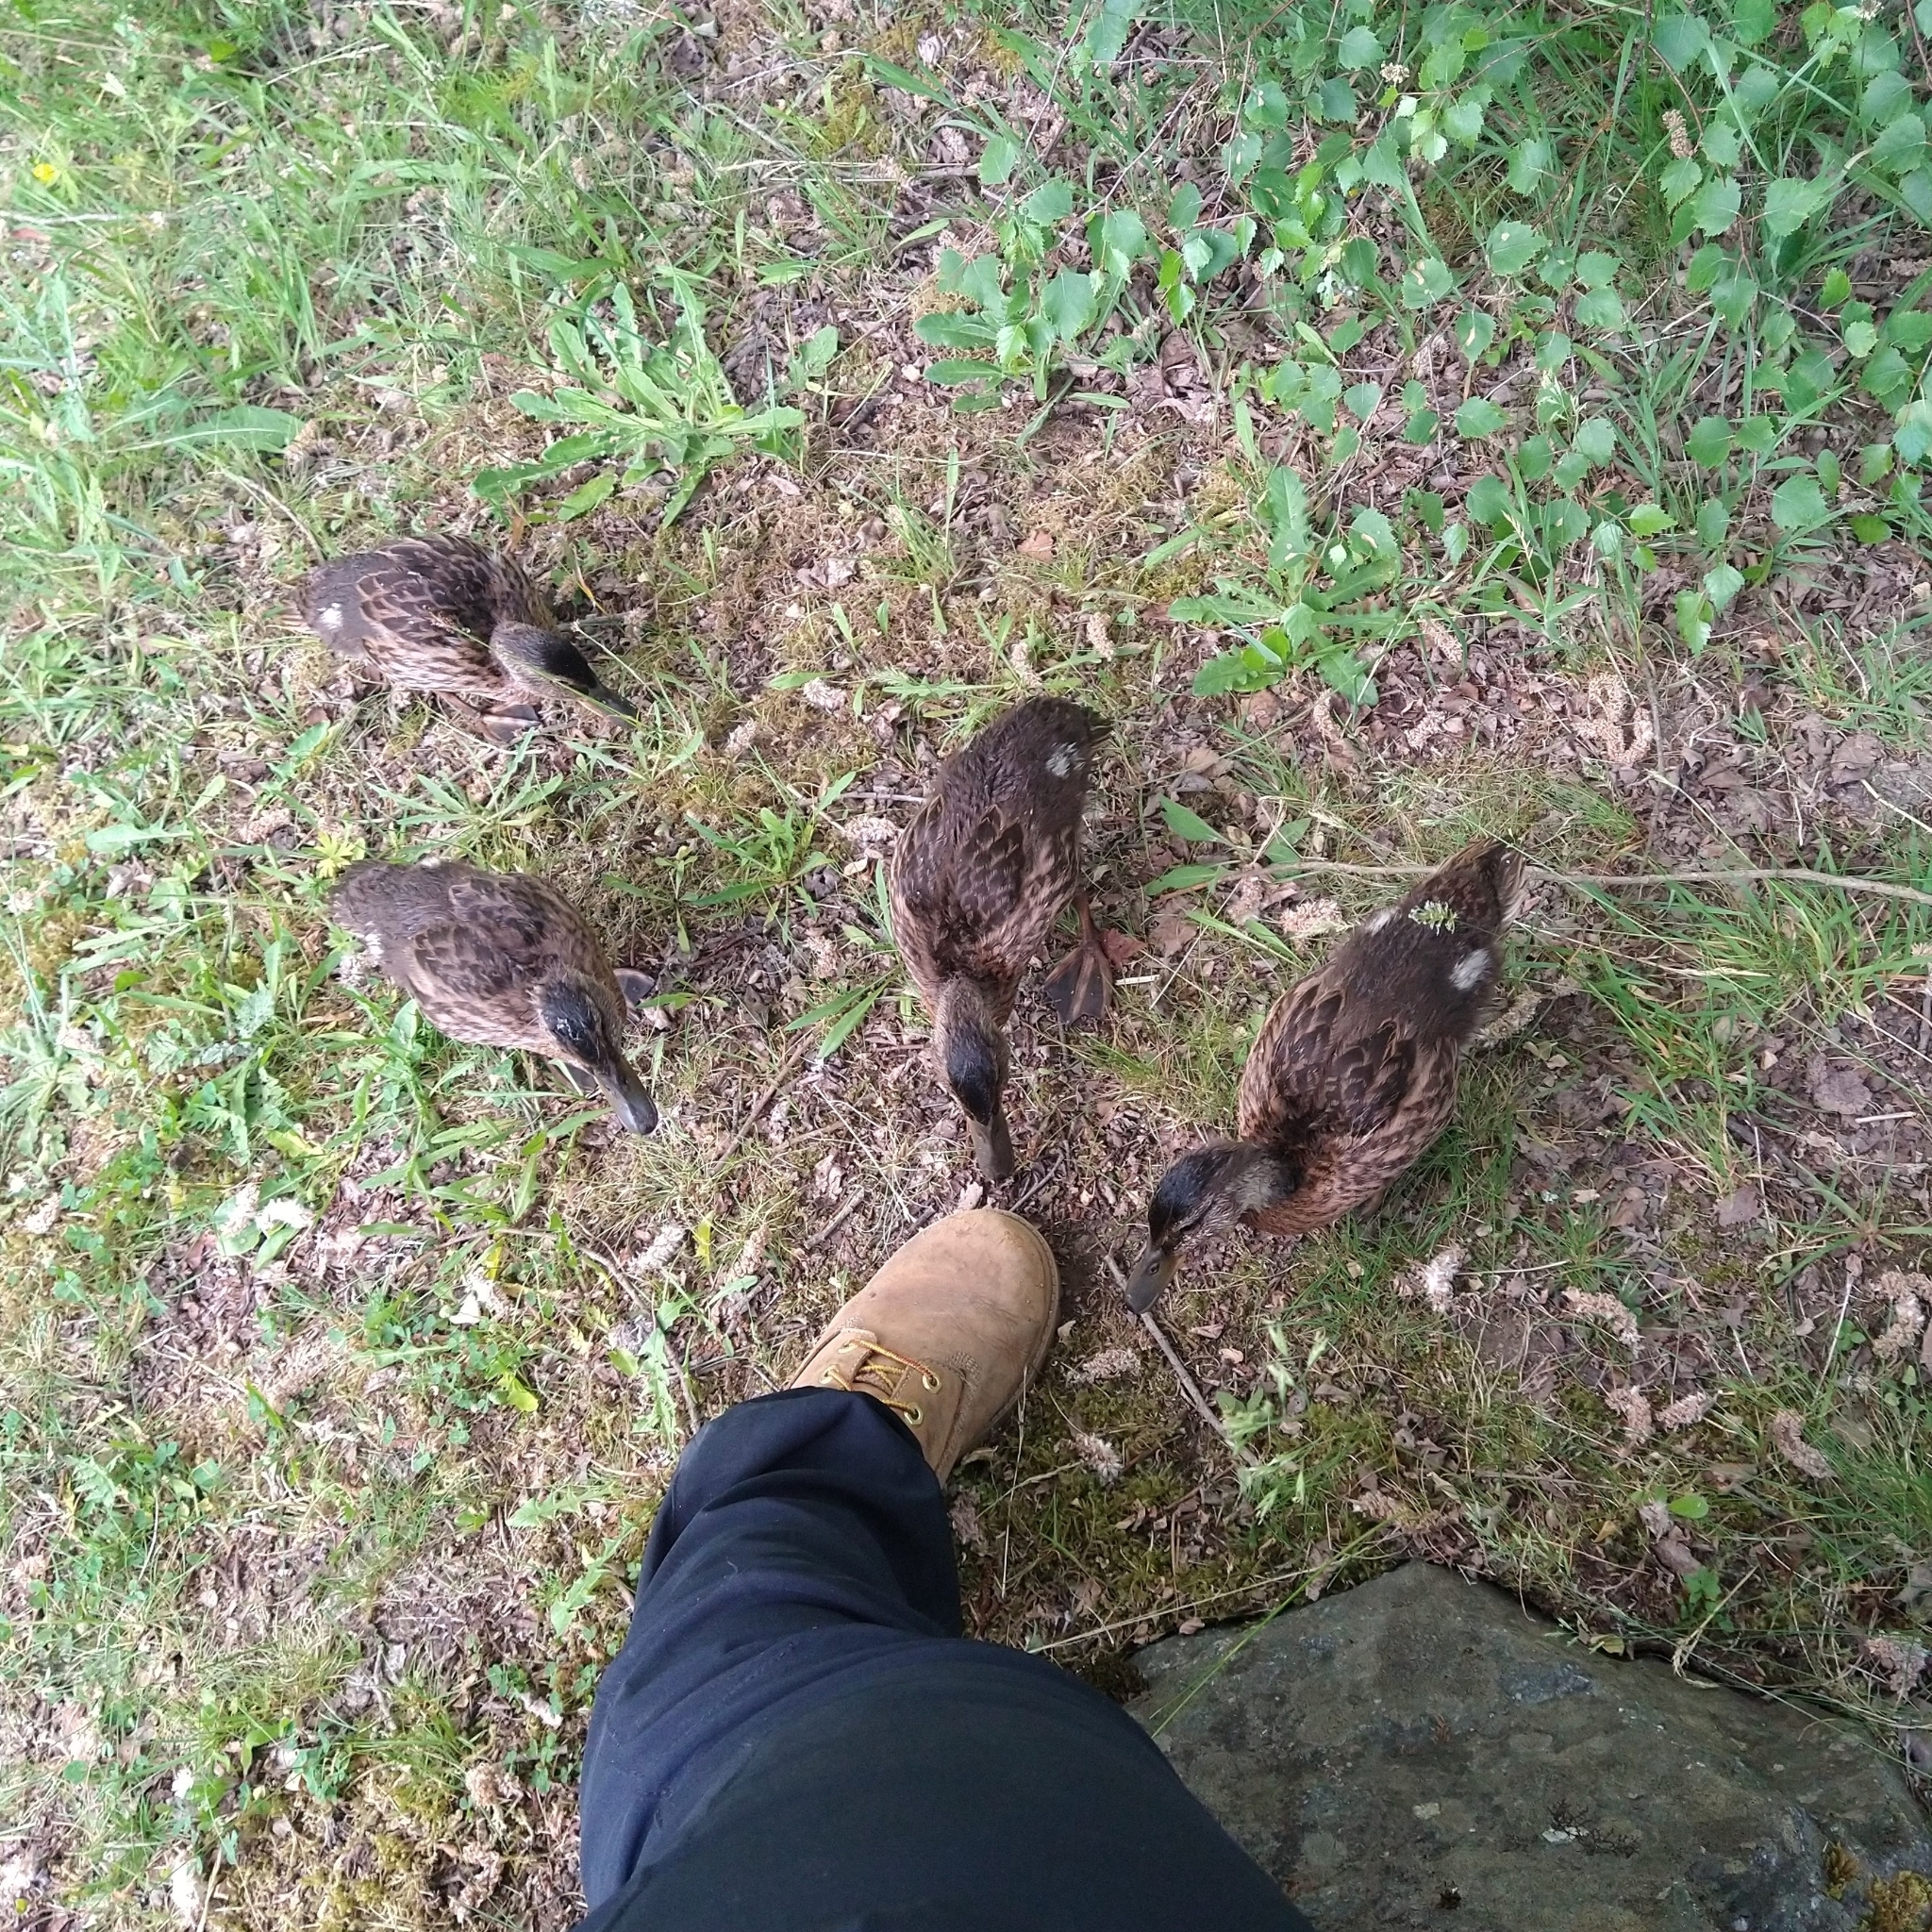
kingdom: Animalia
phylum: Chordata
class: Aves
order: Anseriformes
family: Anatidae
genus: Anas
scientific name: Anas platyrhynchos
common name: Mallard
